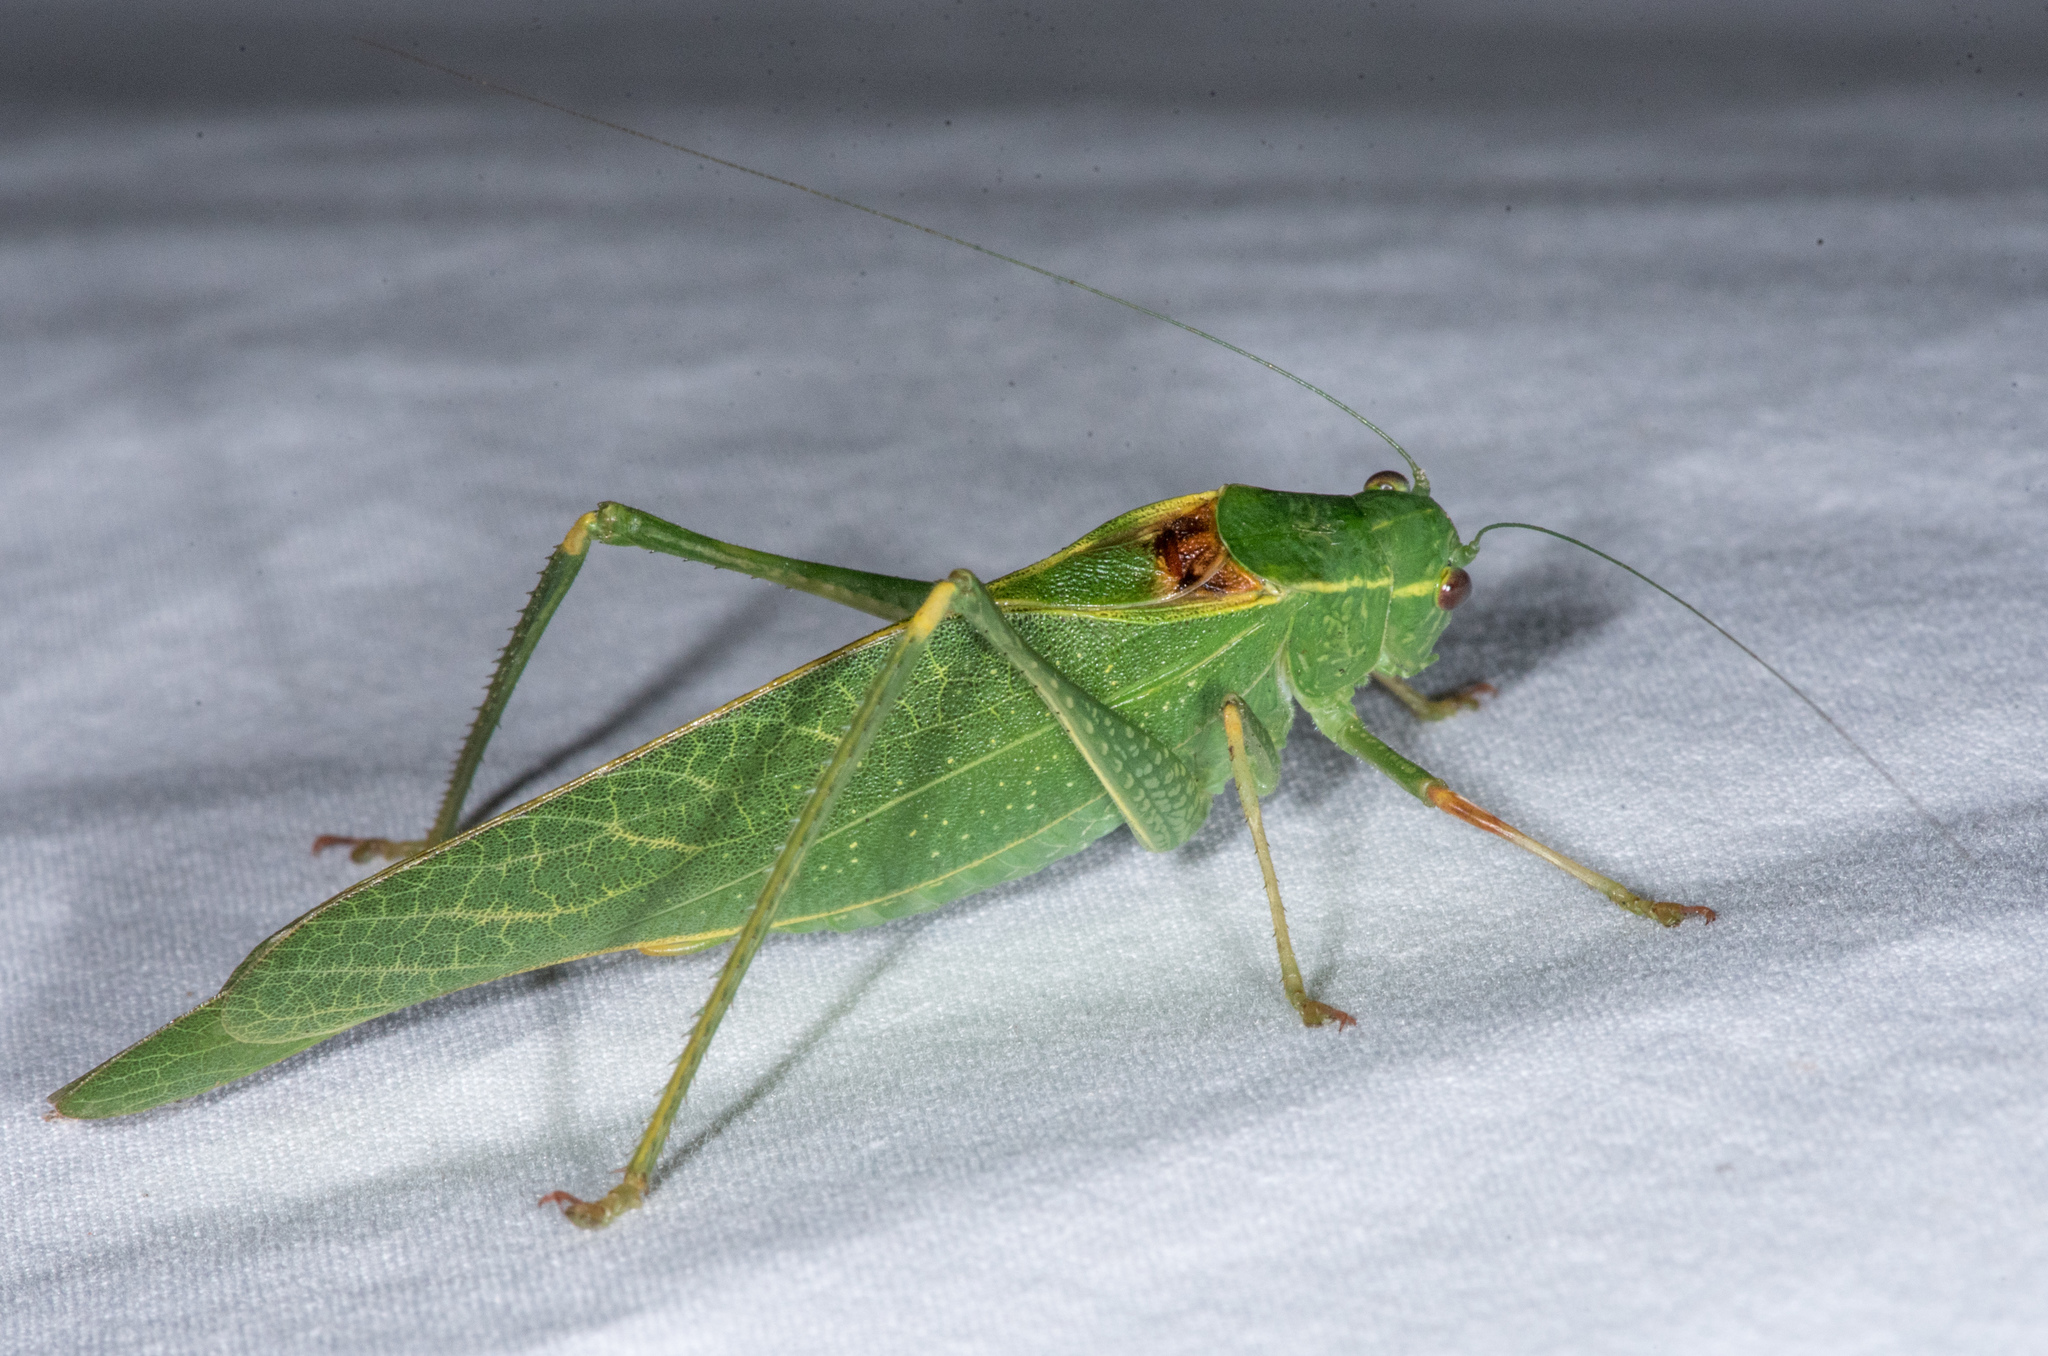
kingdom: Animalia
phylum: Arthropoda
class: Insecta
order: Orthoptera
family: Tettigoniidae
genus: Microcentrum
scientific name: Microcentrum californicum
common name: California angle-wing
